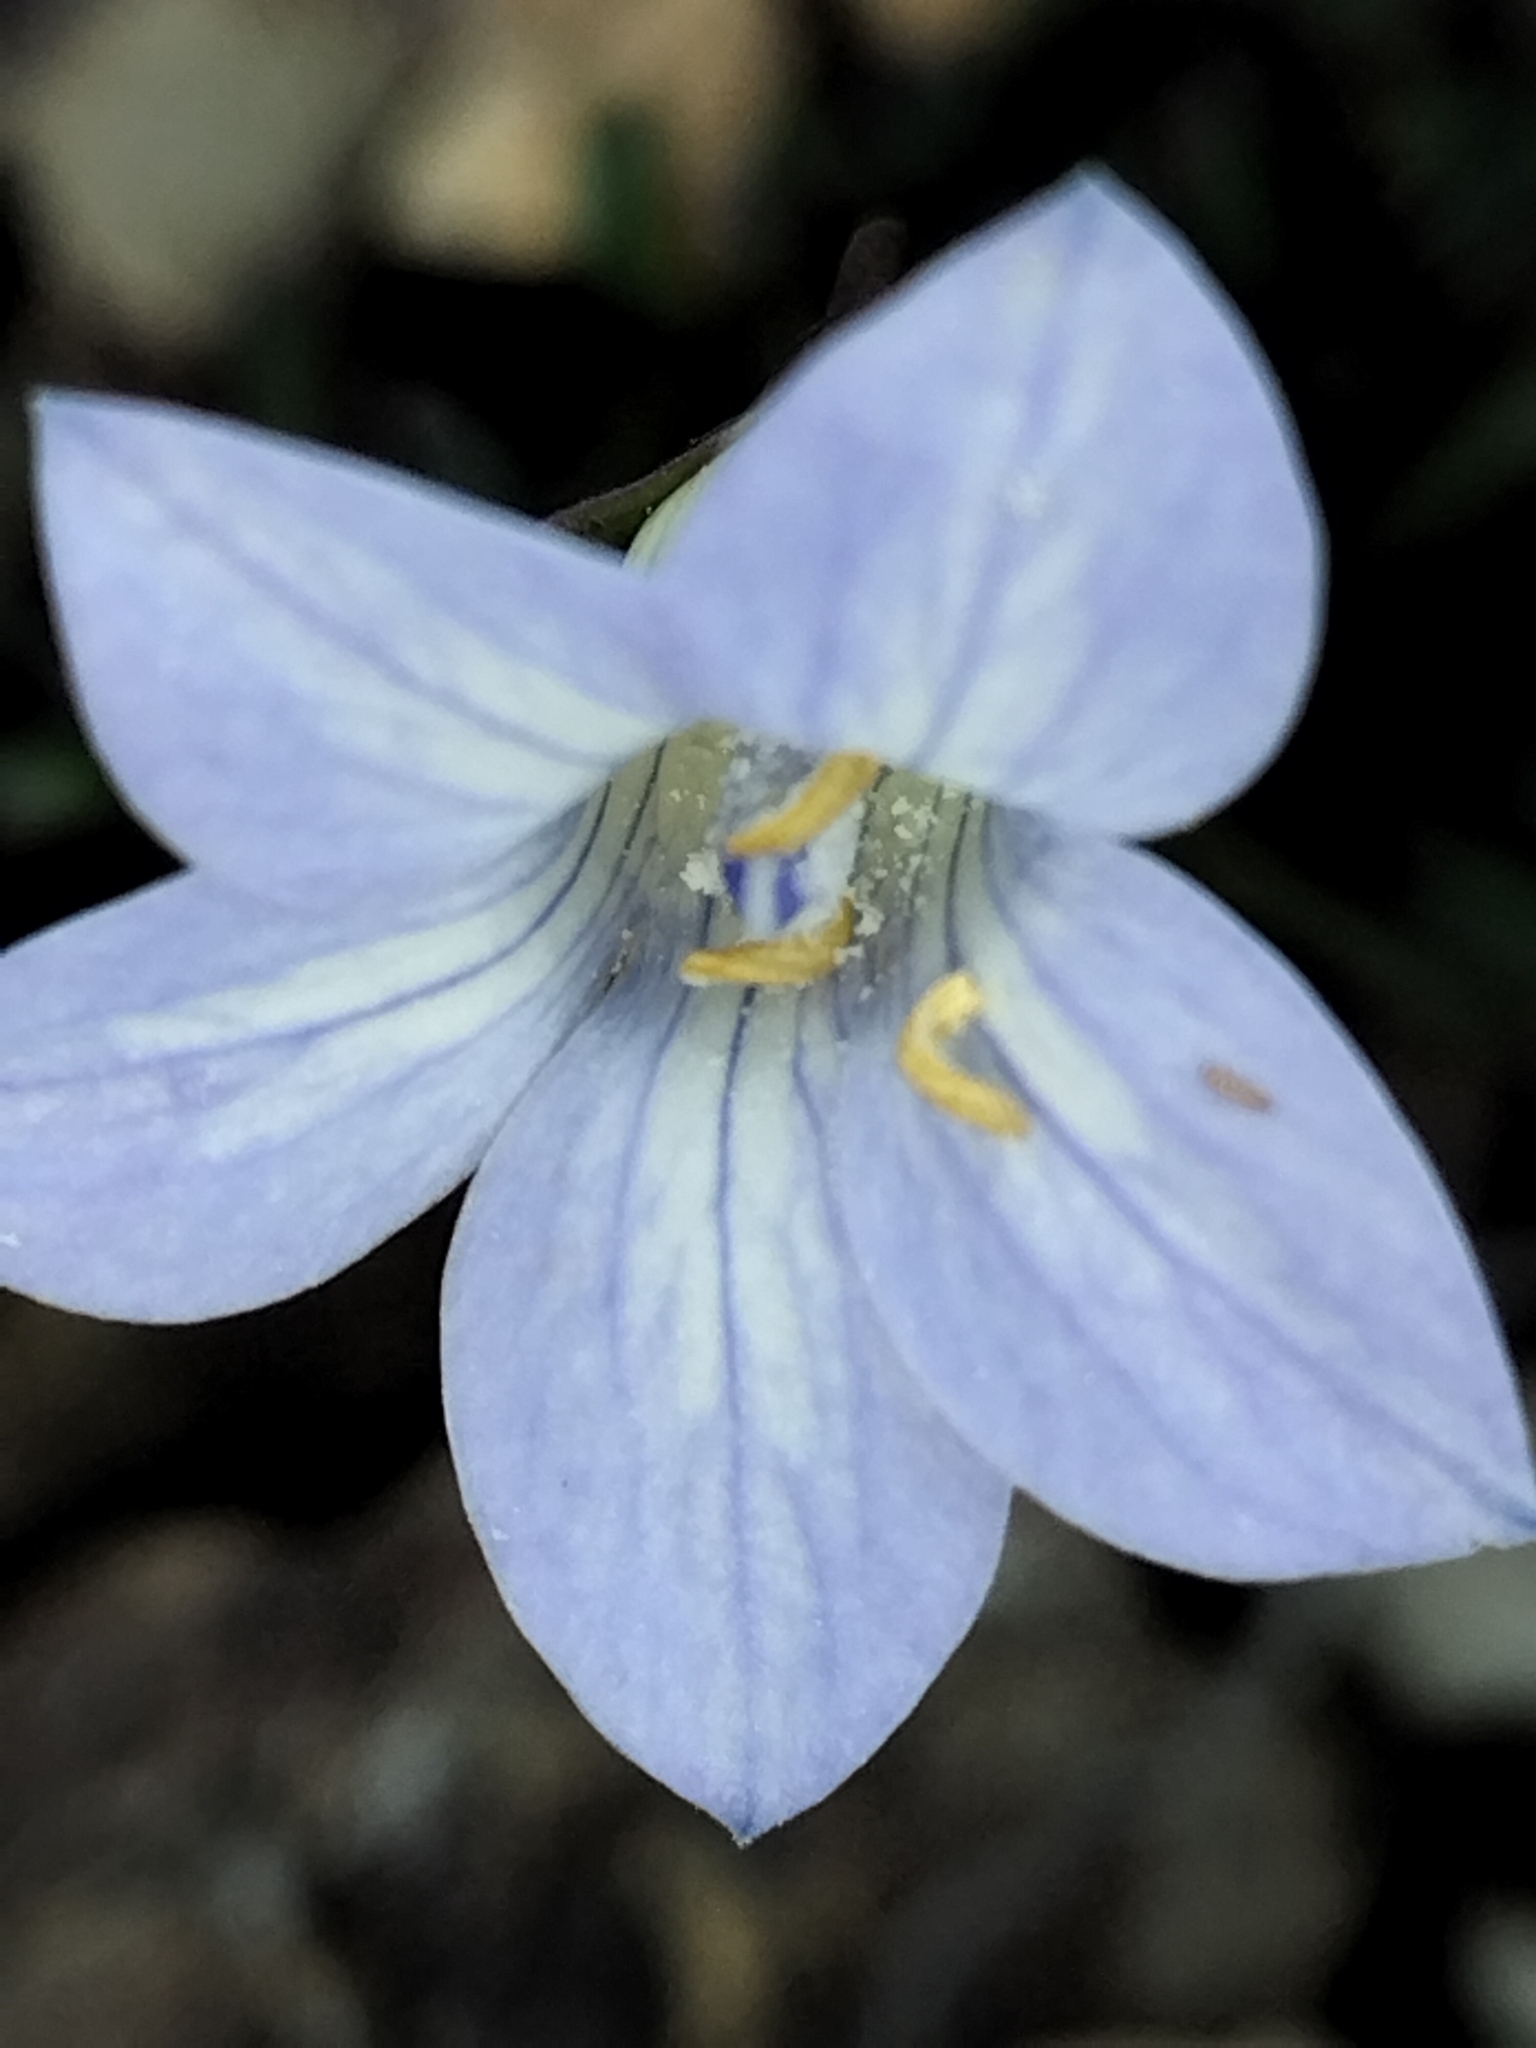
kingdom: Plantae
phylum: Tracheophyta
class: Magnoliopsida
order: Asterales
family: Campanulaceae
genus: Wahlenbergia
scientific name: Wahlenbergia albomarginata
